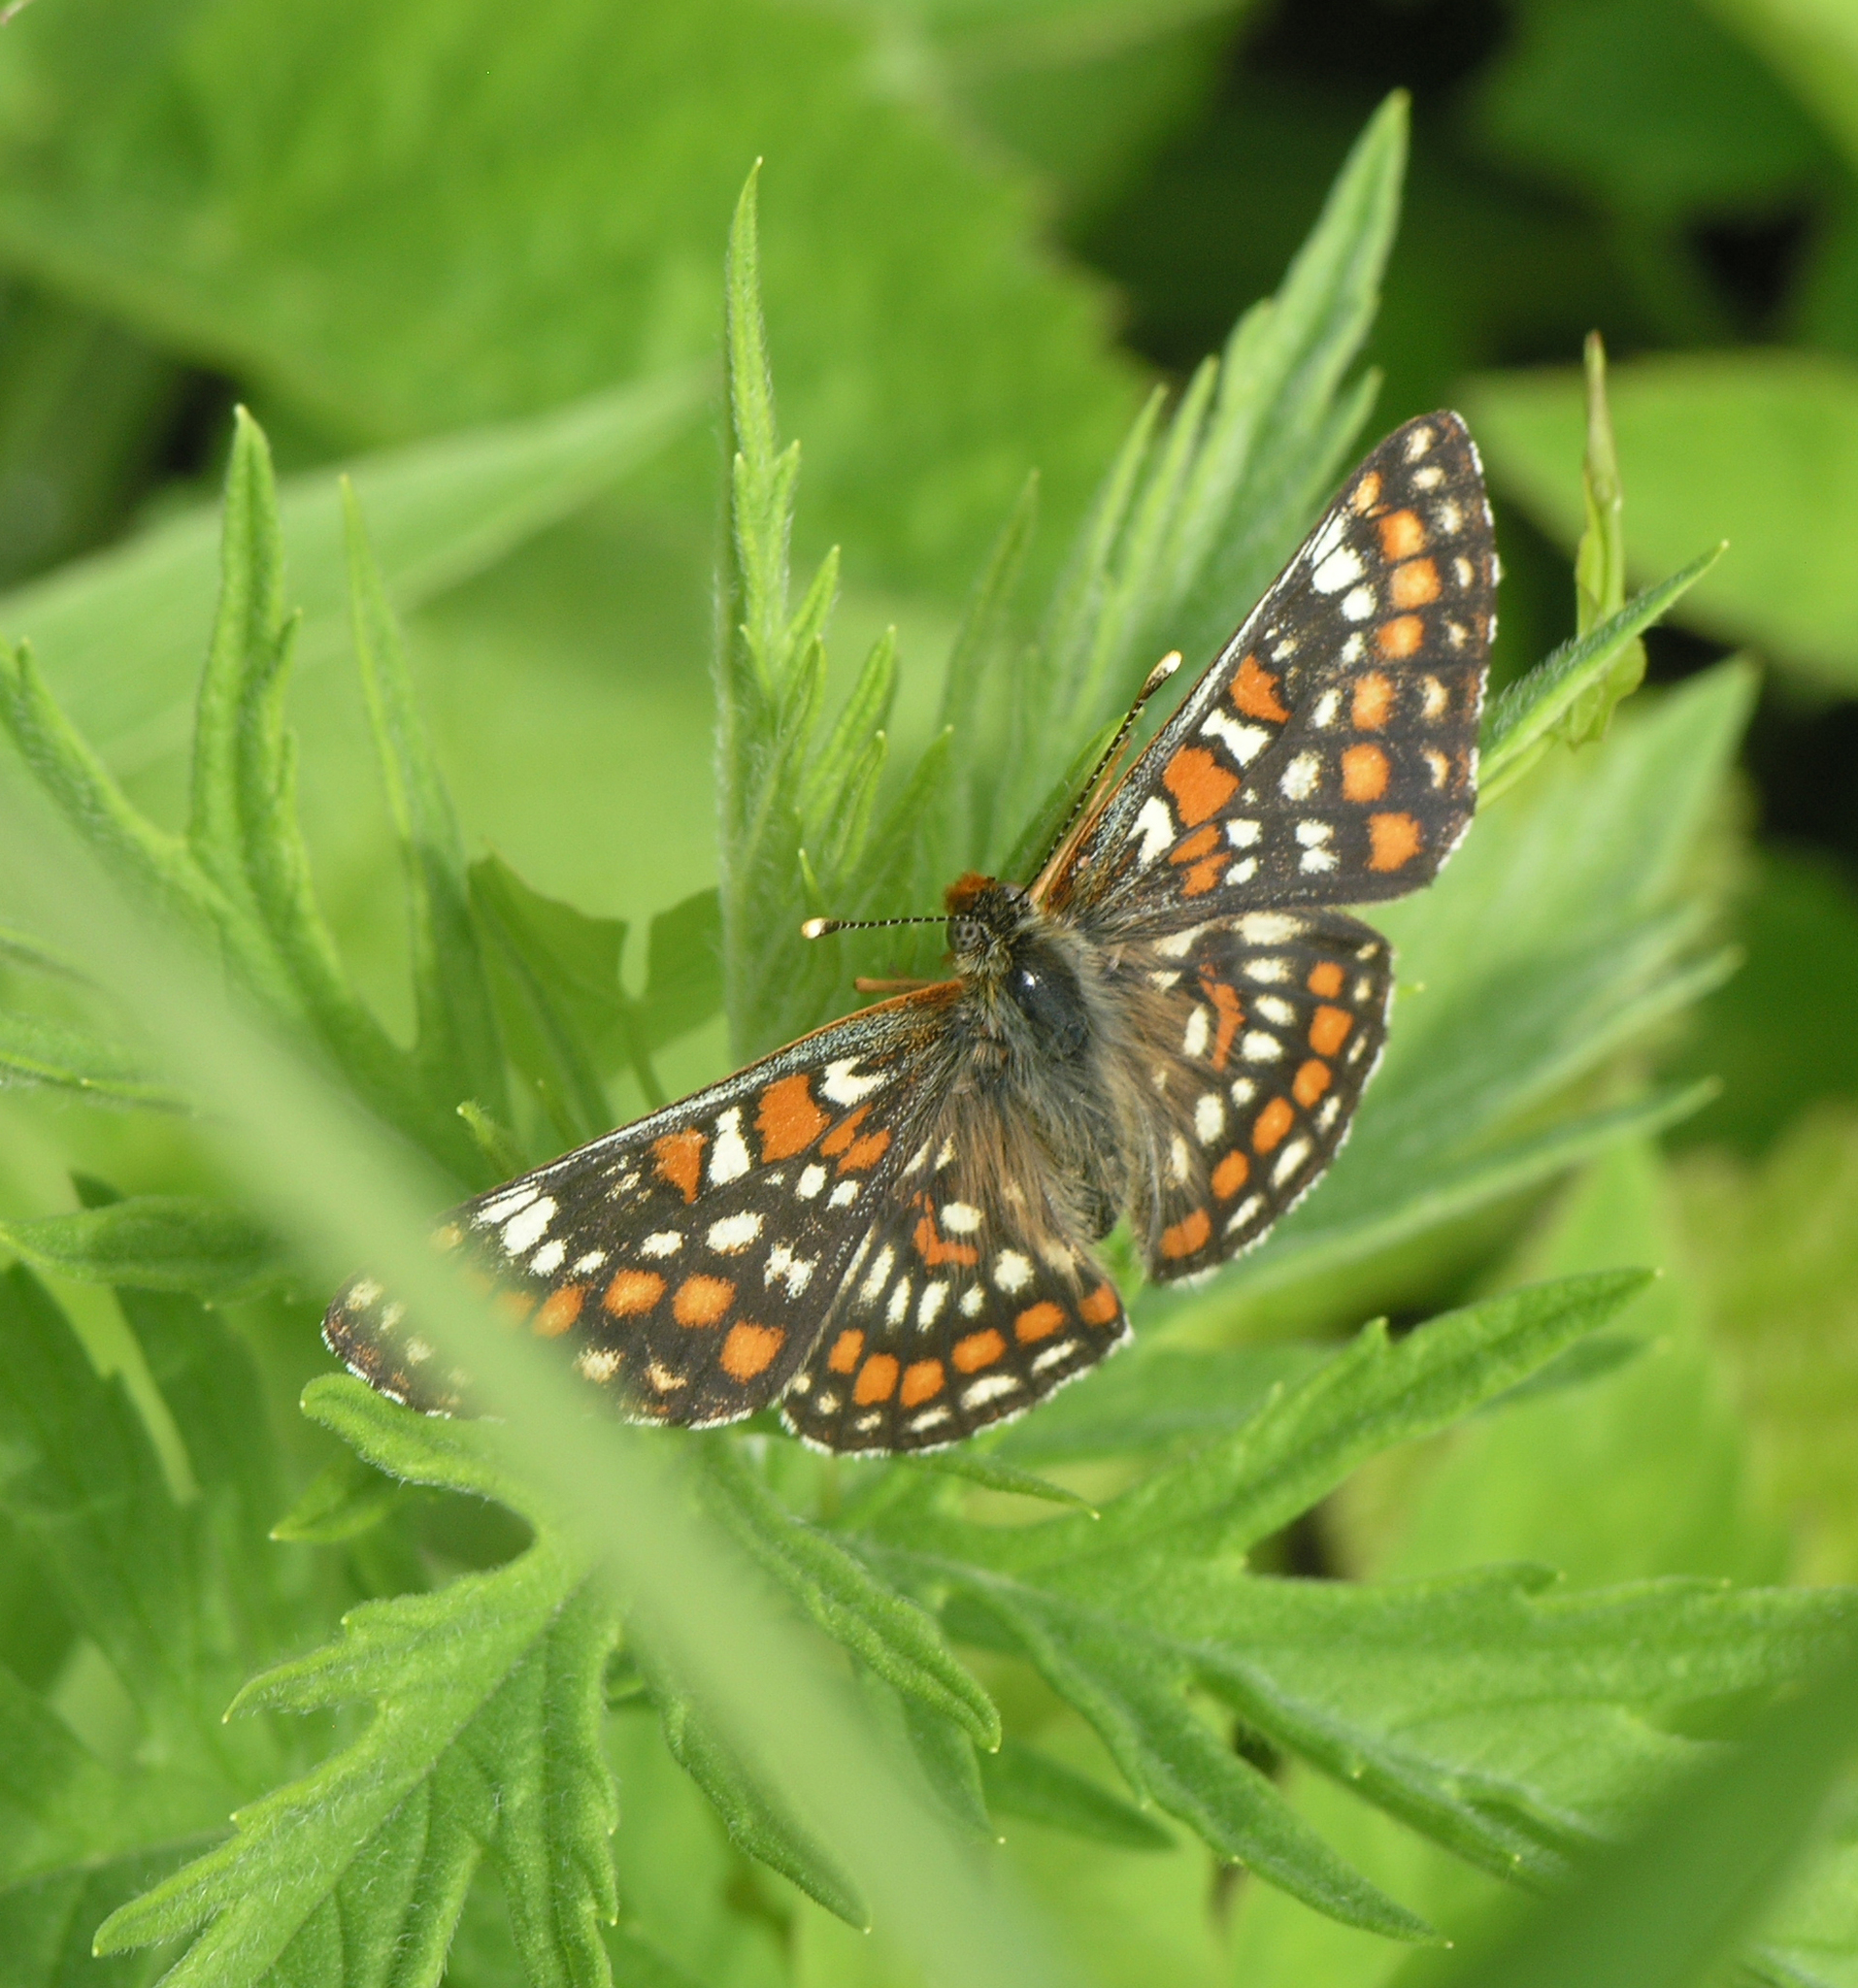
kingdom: Animalia
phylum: Arthropoda
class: Insecta
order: Lepidoptera
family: Nymphalidae
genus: Euphydryas
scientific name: Euphydryas maturna
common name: Scarce fritillary
